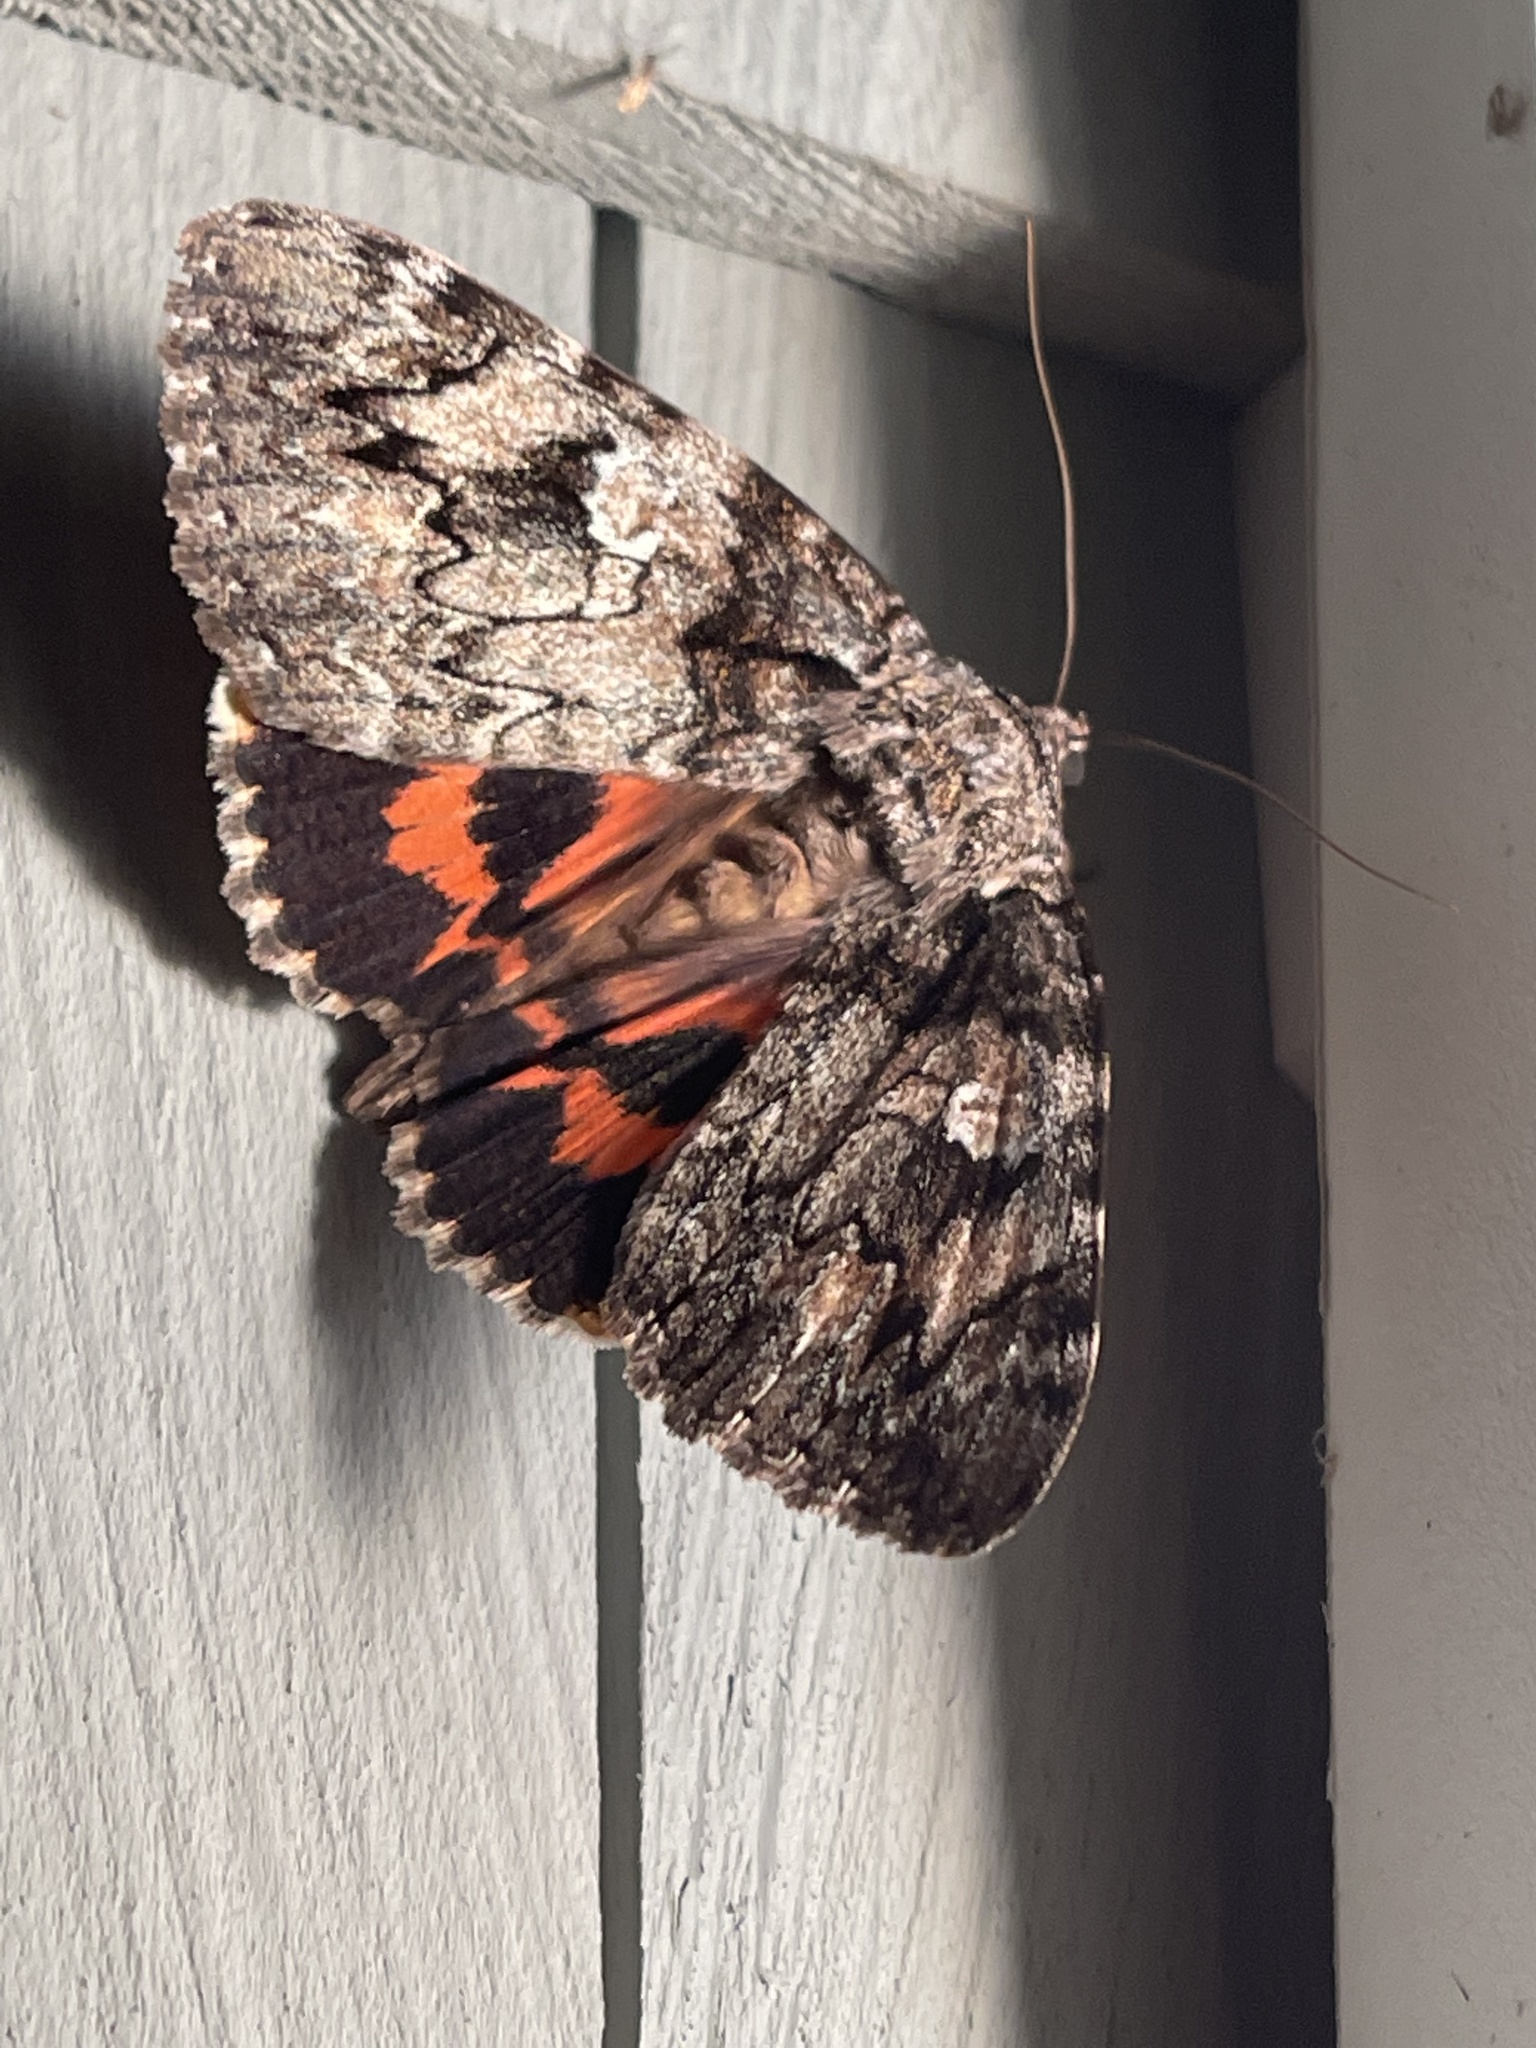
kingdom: Animalia
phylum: Arthropoda
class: Insecta
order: Lepidoptera
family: Erebidae
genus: Catocala
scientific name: Catocala ilia
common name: Ilia underwing
